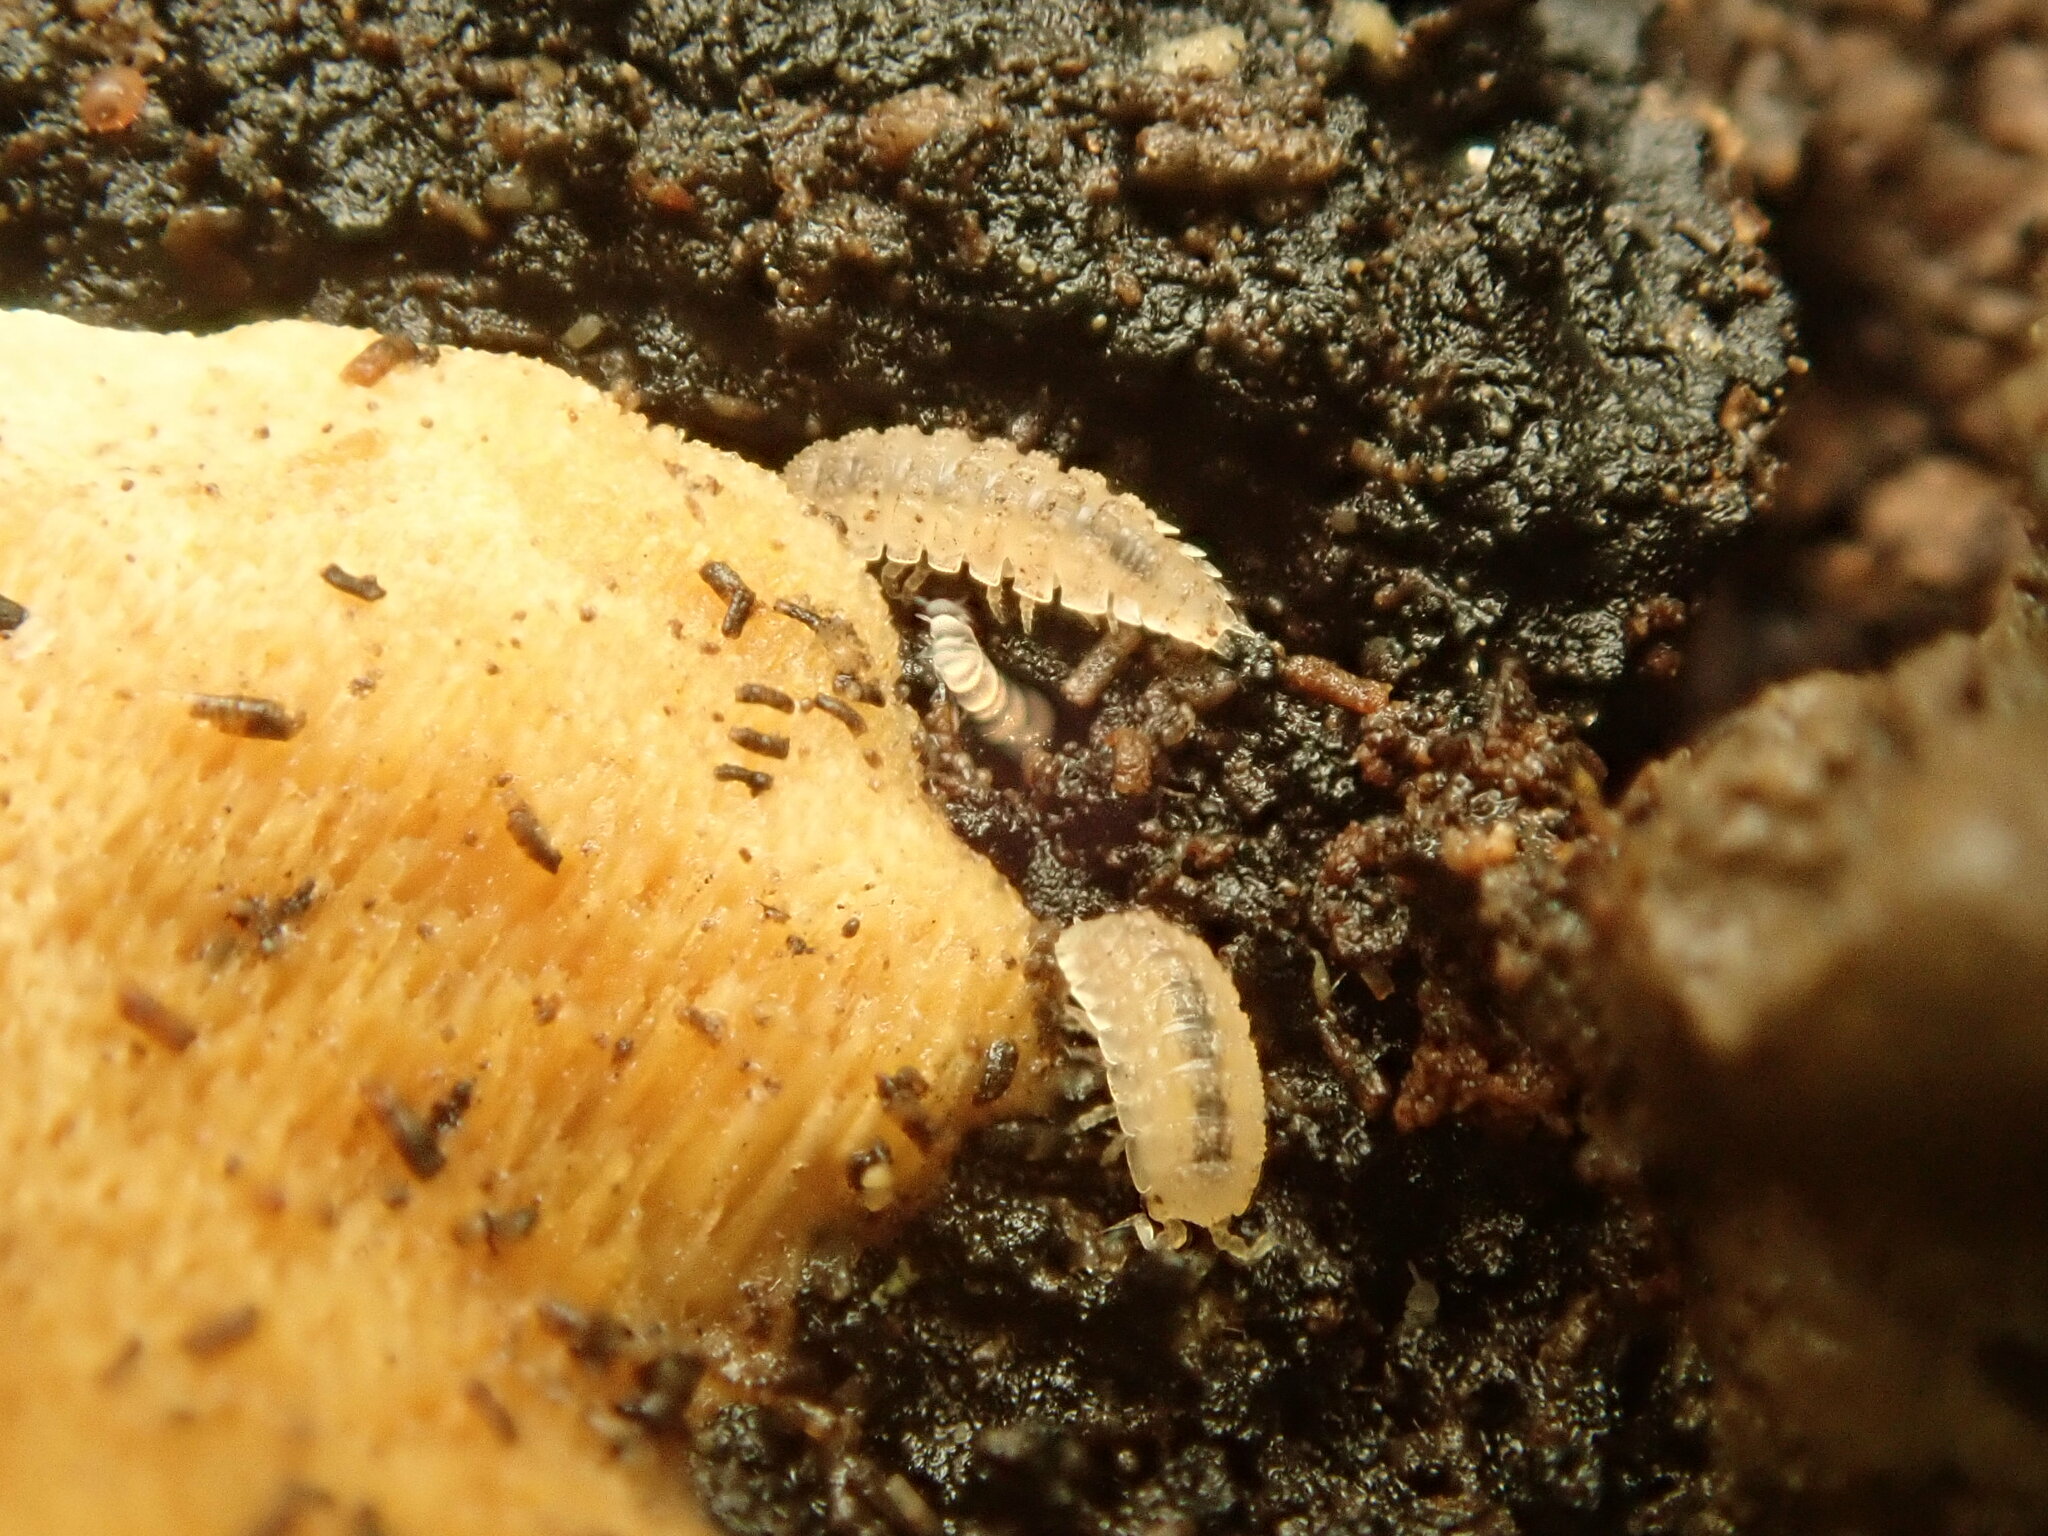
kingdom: Animalia
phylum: Arthropoda
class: Malacostraca
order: Isopoda
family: Trichoniscidae
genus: Haplophthalmus
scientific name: Haplophthalmus danicus
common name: Pillbug
